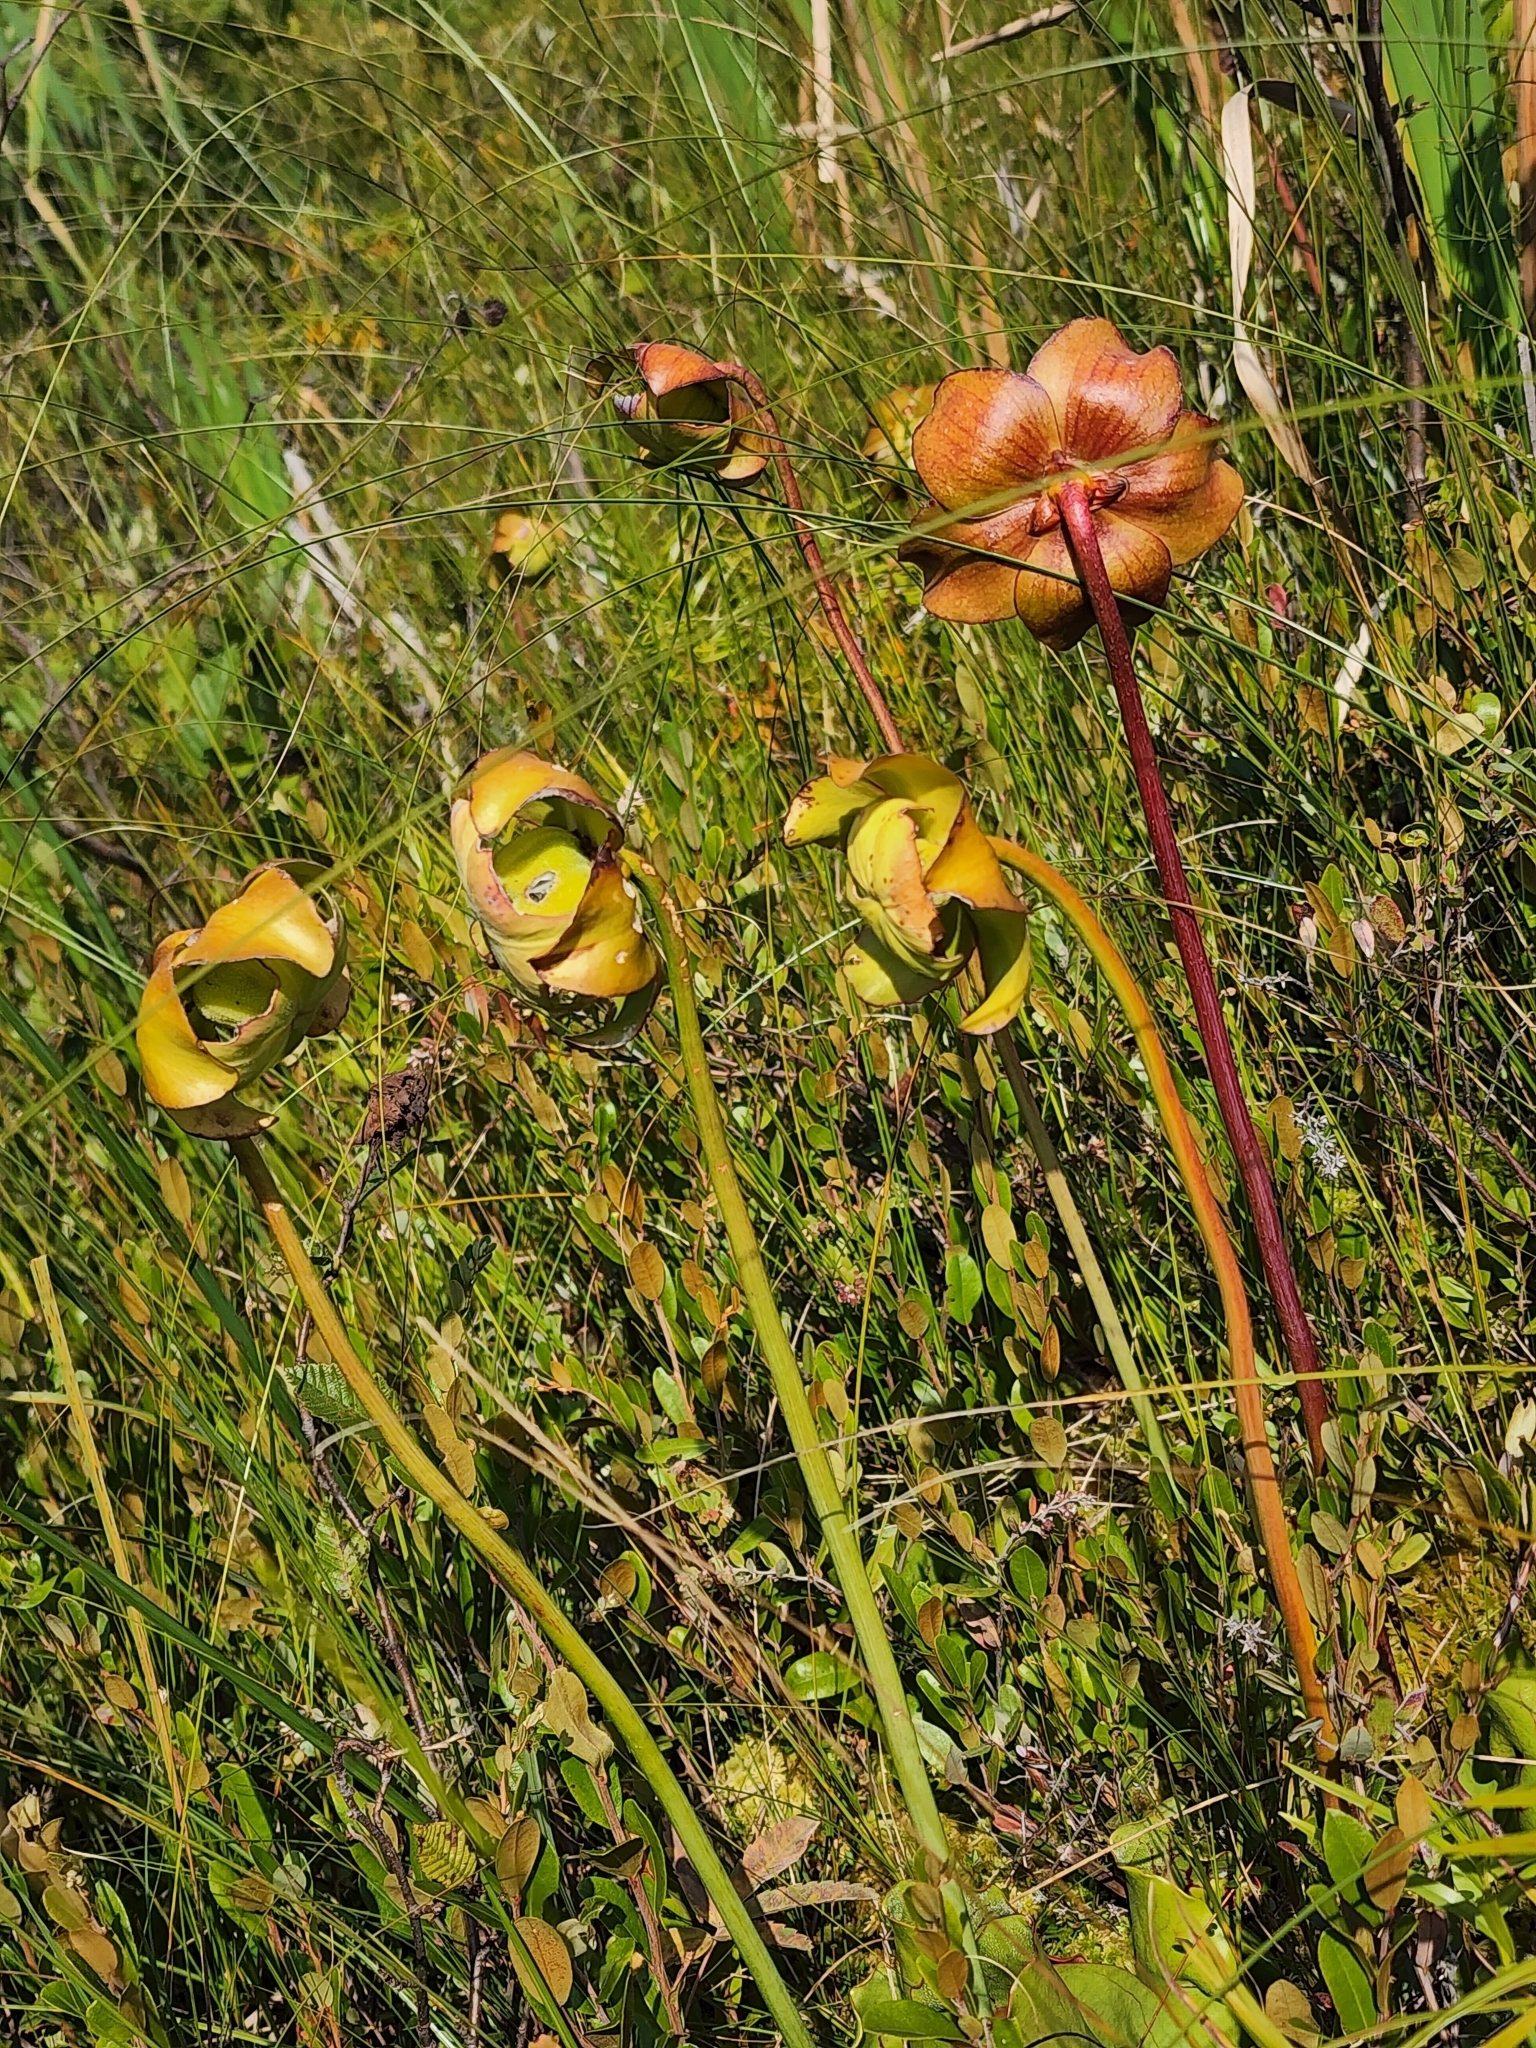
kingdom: Plantae
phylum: Tracheophyta
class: Magnoliopsida
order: Ericales
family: Sarraceniaceae
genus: Sarracenia
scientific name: Sarracenia purpurea
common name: Pitcherplant
